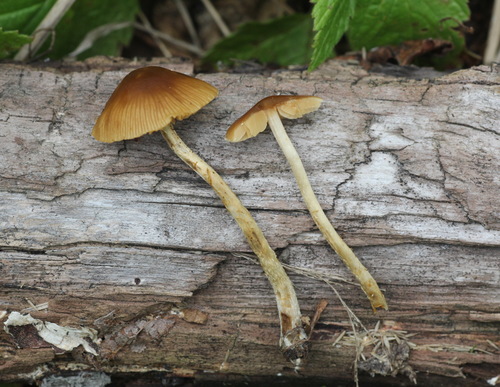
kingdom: Fungi
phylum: Basidiomycota
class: Agaricomycetes
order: Agaricales
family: Bolbitiaceae
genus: Conocybe
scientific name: Conocybe mesospora
